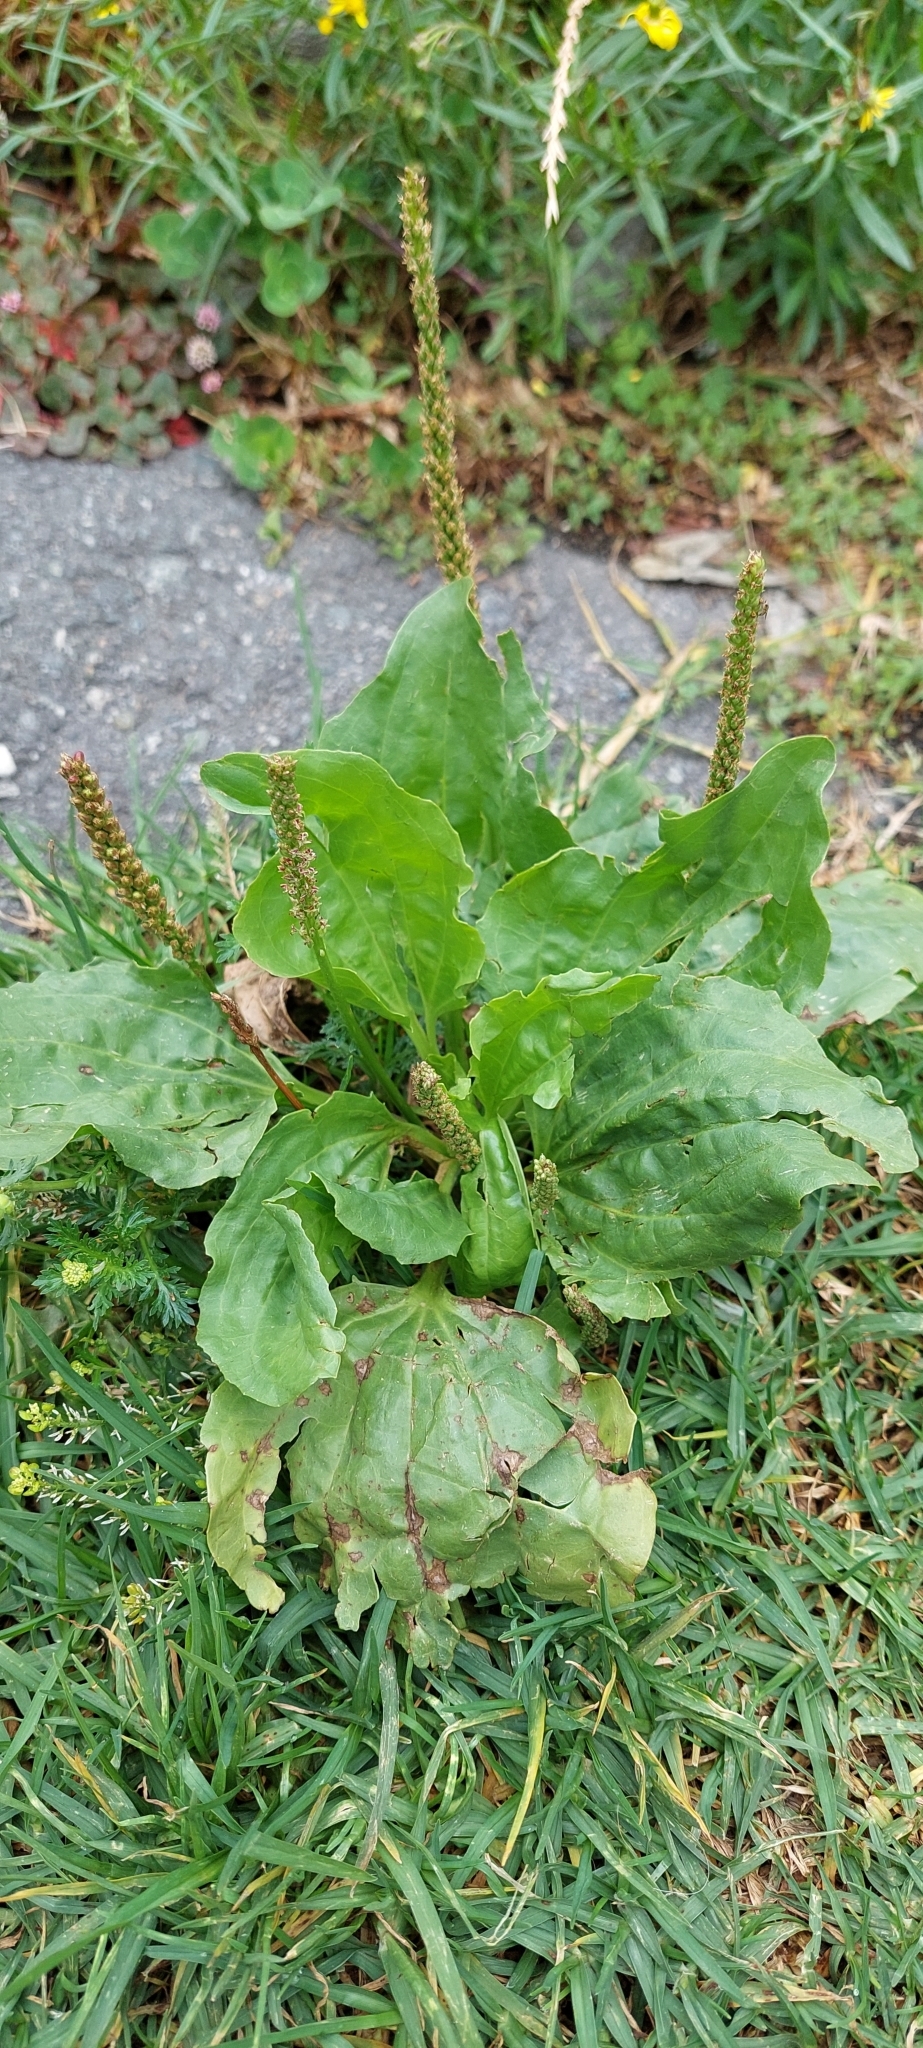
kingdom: Plantae
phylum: Tracheophyta
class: Magnoliopsida
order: Lamiales
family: Plantaginaceae
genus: Plantago
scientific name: Plantago major
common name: Common plantain
